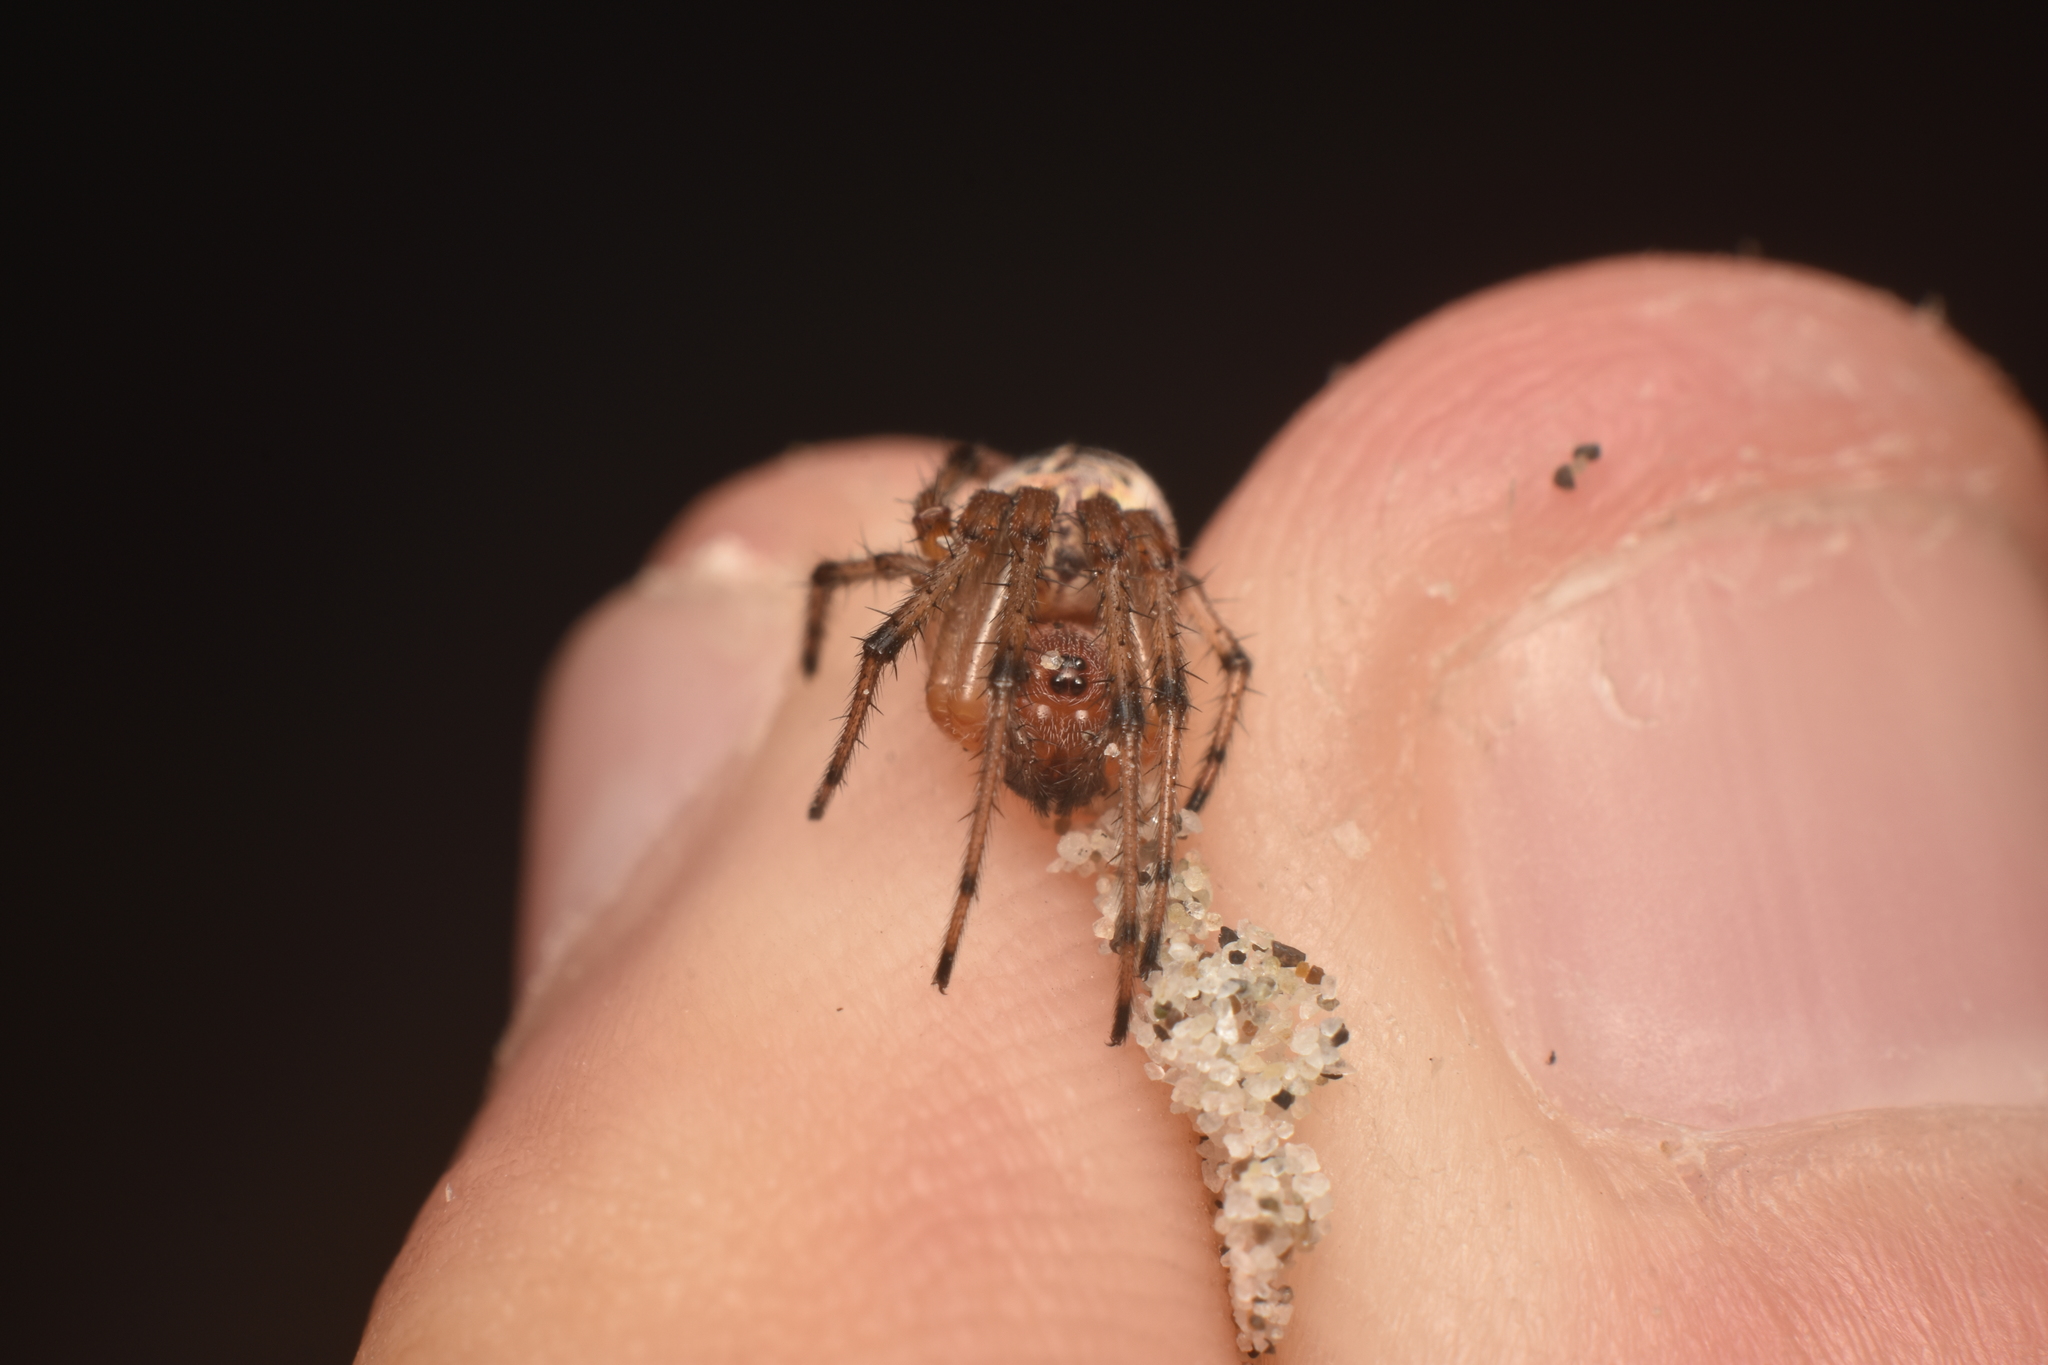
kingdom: Animalia
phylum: Arthropoda
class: Arachnida
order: Araneae
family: Araneidae
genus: Alpaida
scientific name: Alpaida veniliae
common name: Orb weavers
